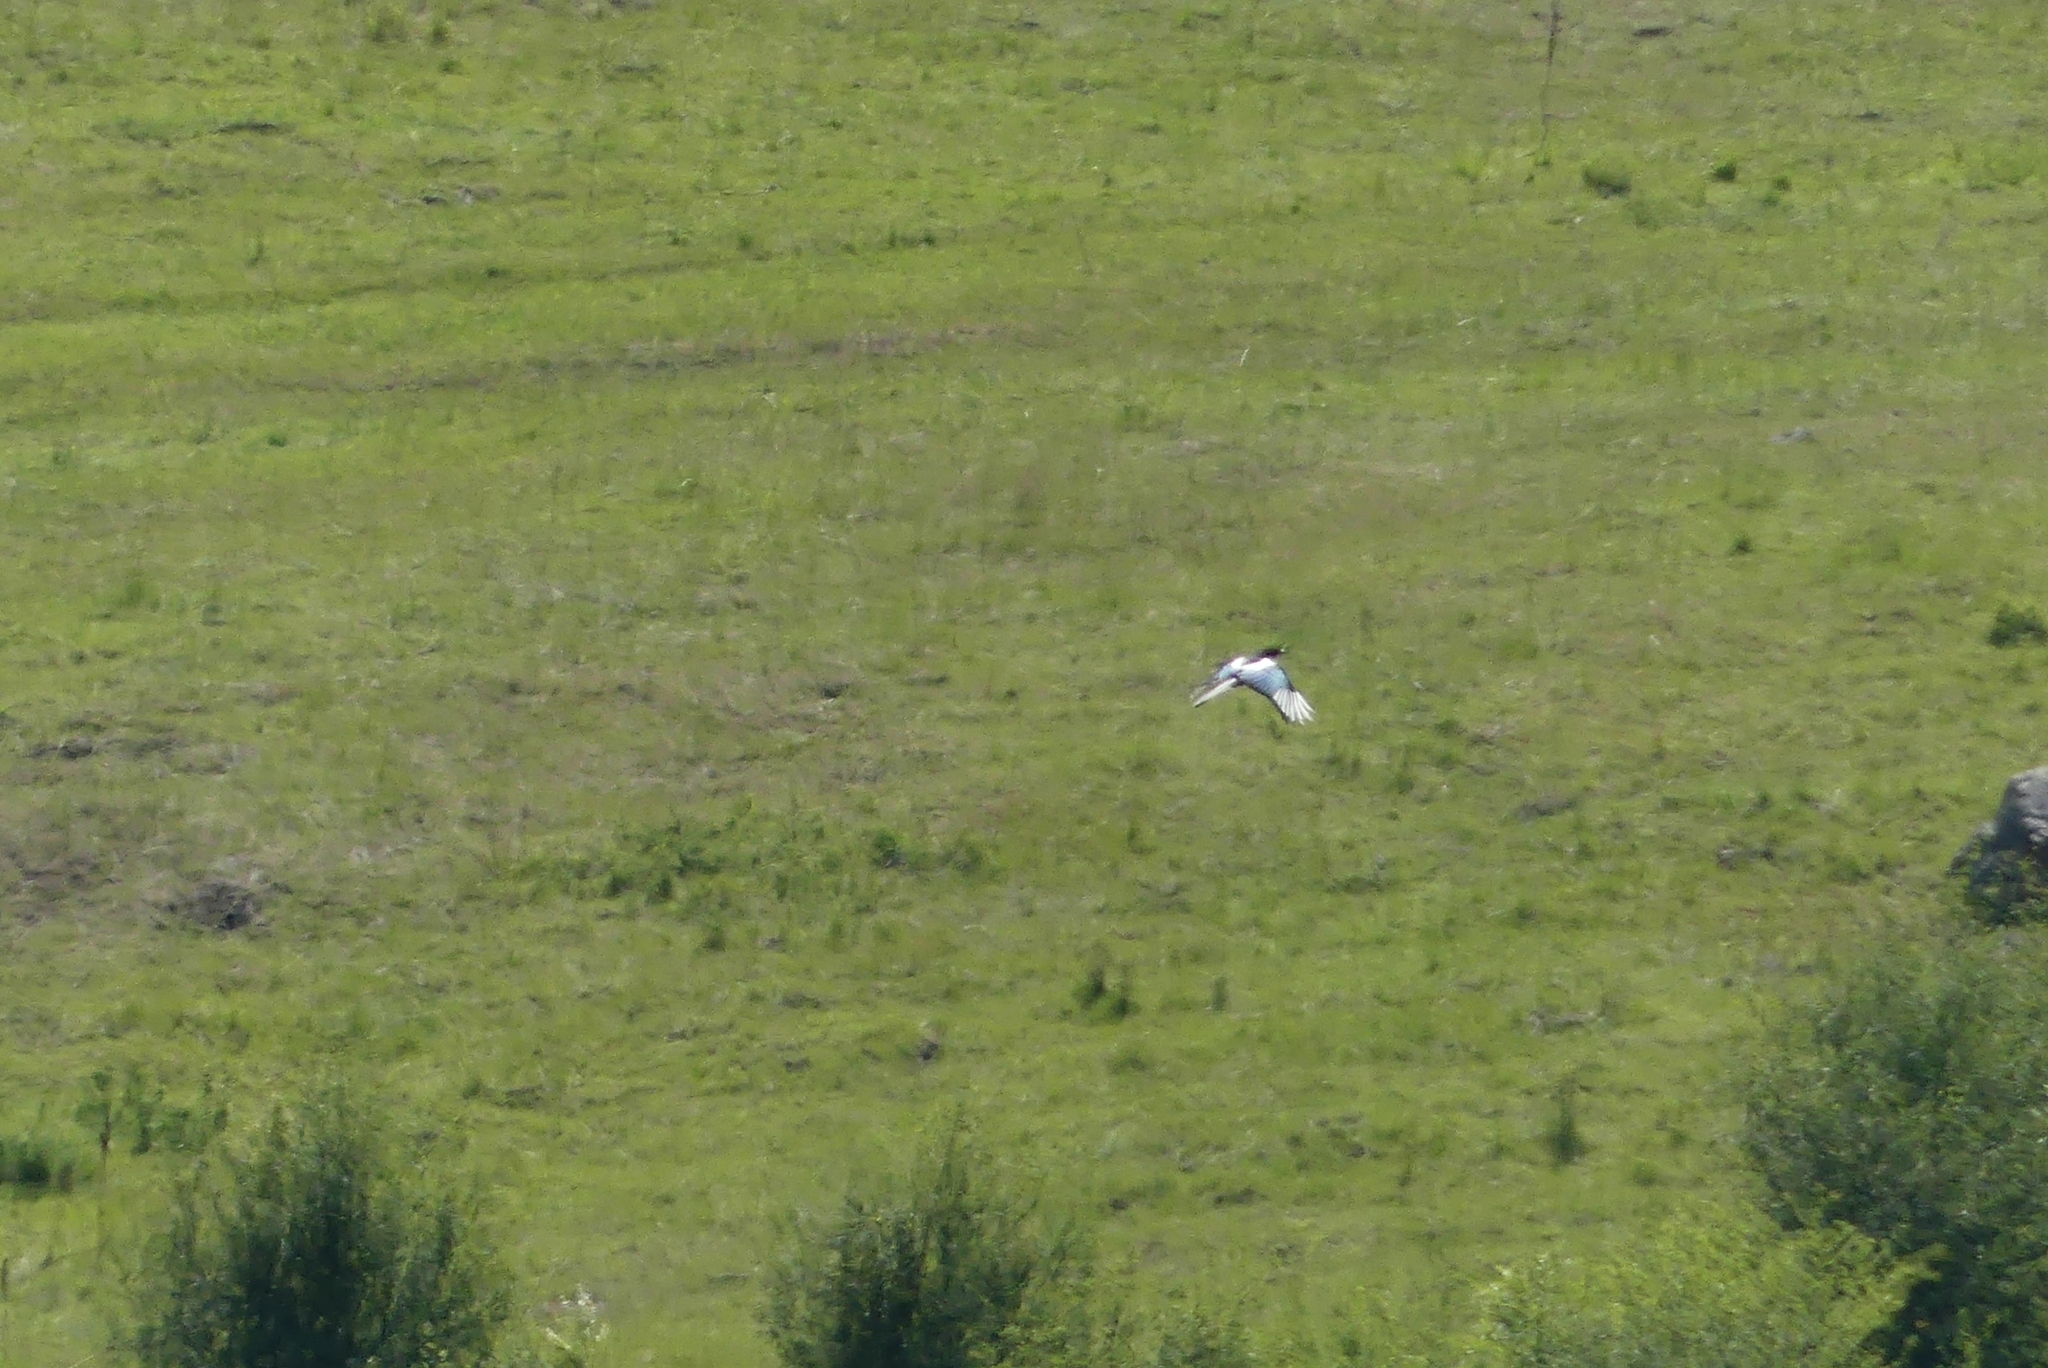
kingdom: Animalia
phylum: Chordata
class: Aves
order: Passeriformes
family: Corvidae
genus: Pica
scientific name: Pica hudsonia
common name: Black-billed magpie
